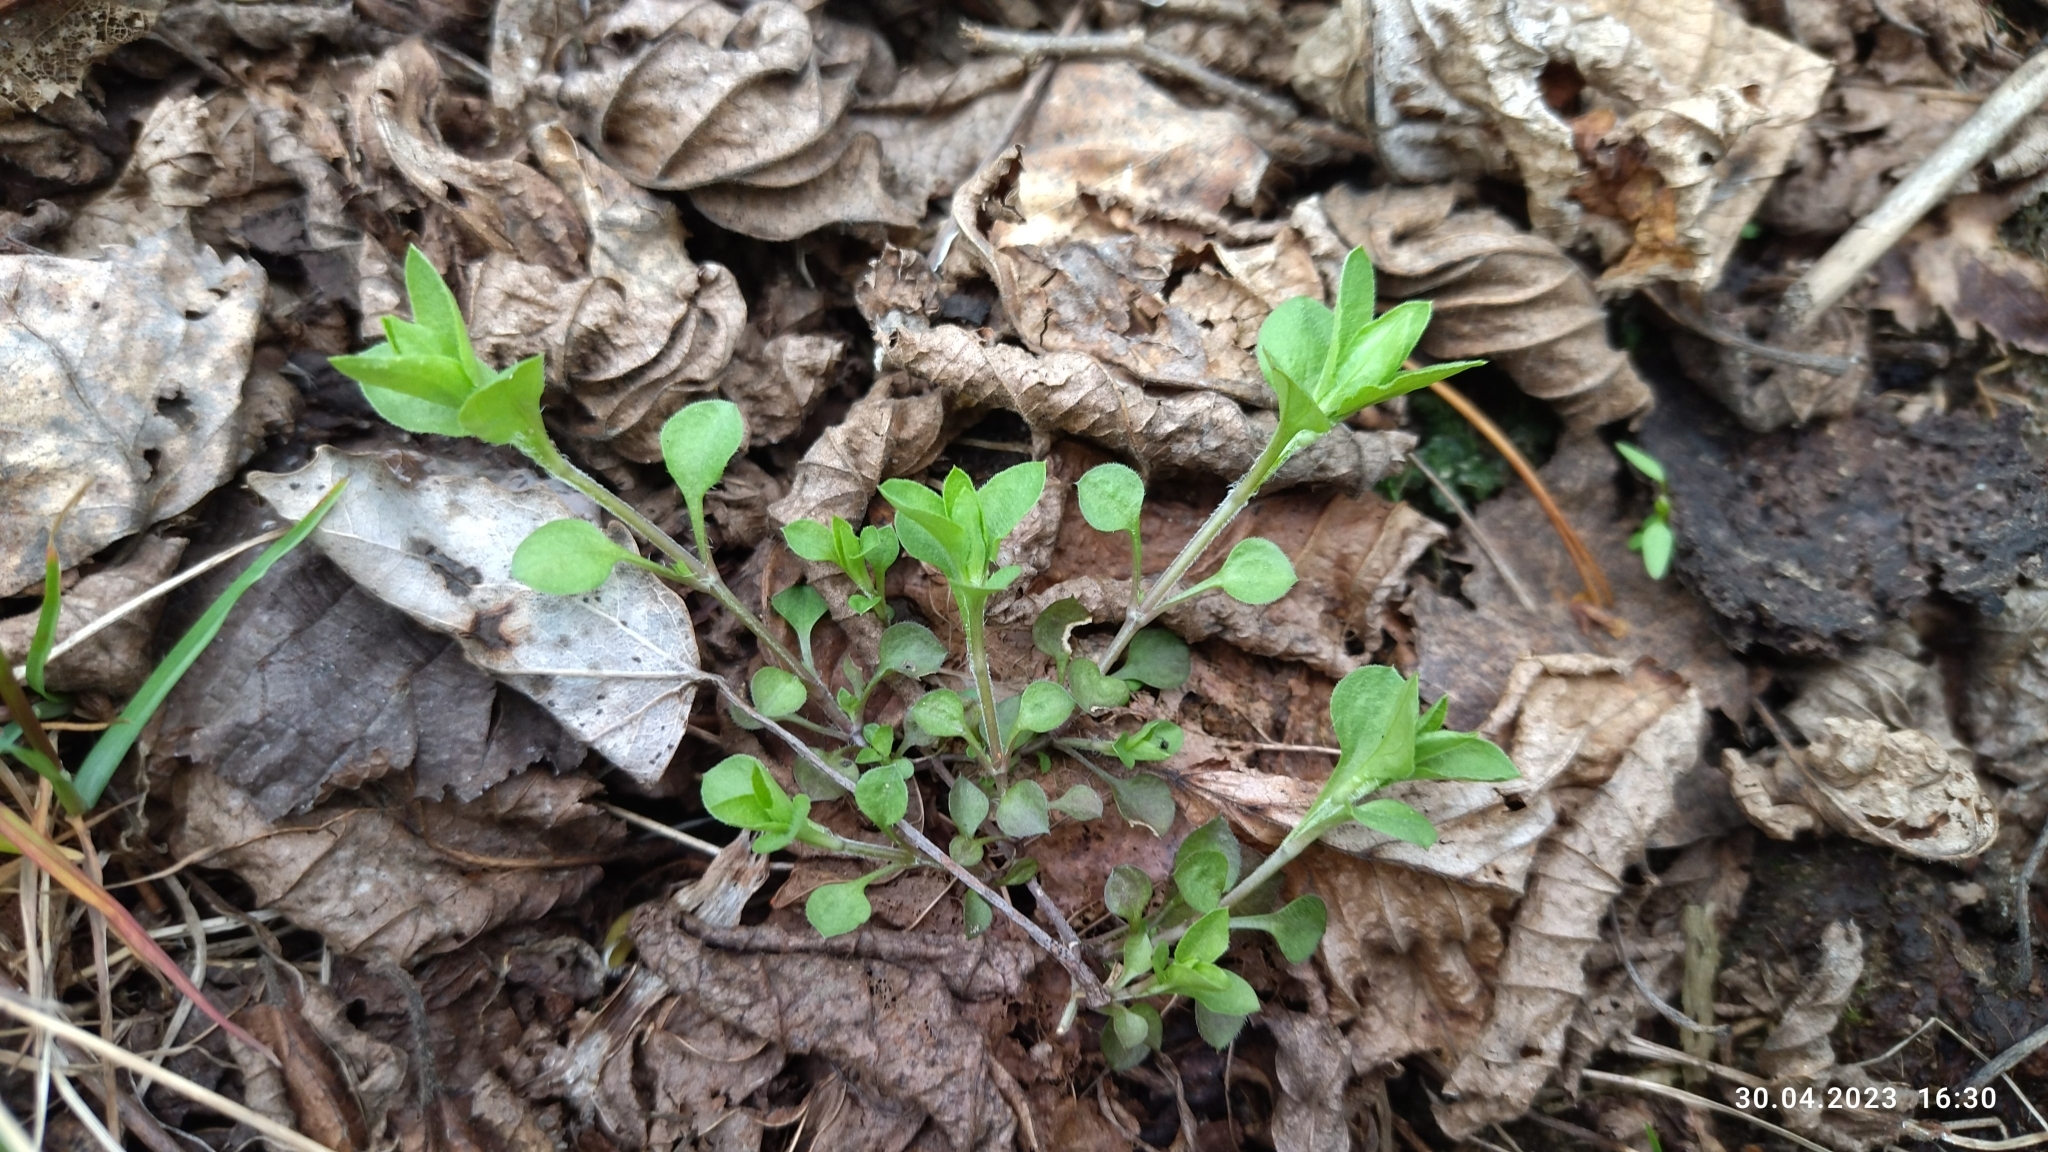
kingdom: Plantae
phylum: Tracheophyta
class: Magnoliopsida
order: Caryophyllales
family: Caryophyllaceae
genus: Moehringia
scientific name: Moehringia trinervia
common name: Three-nerved sandwort
